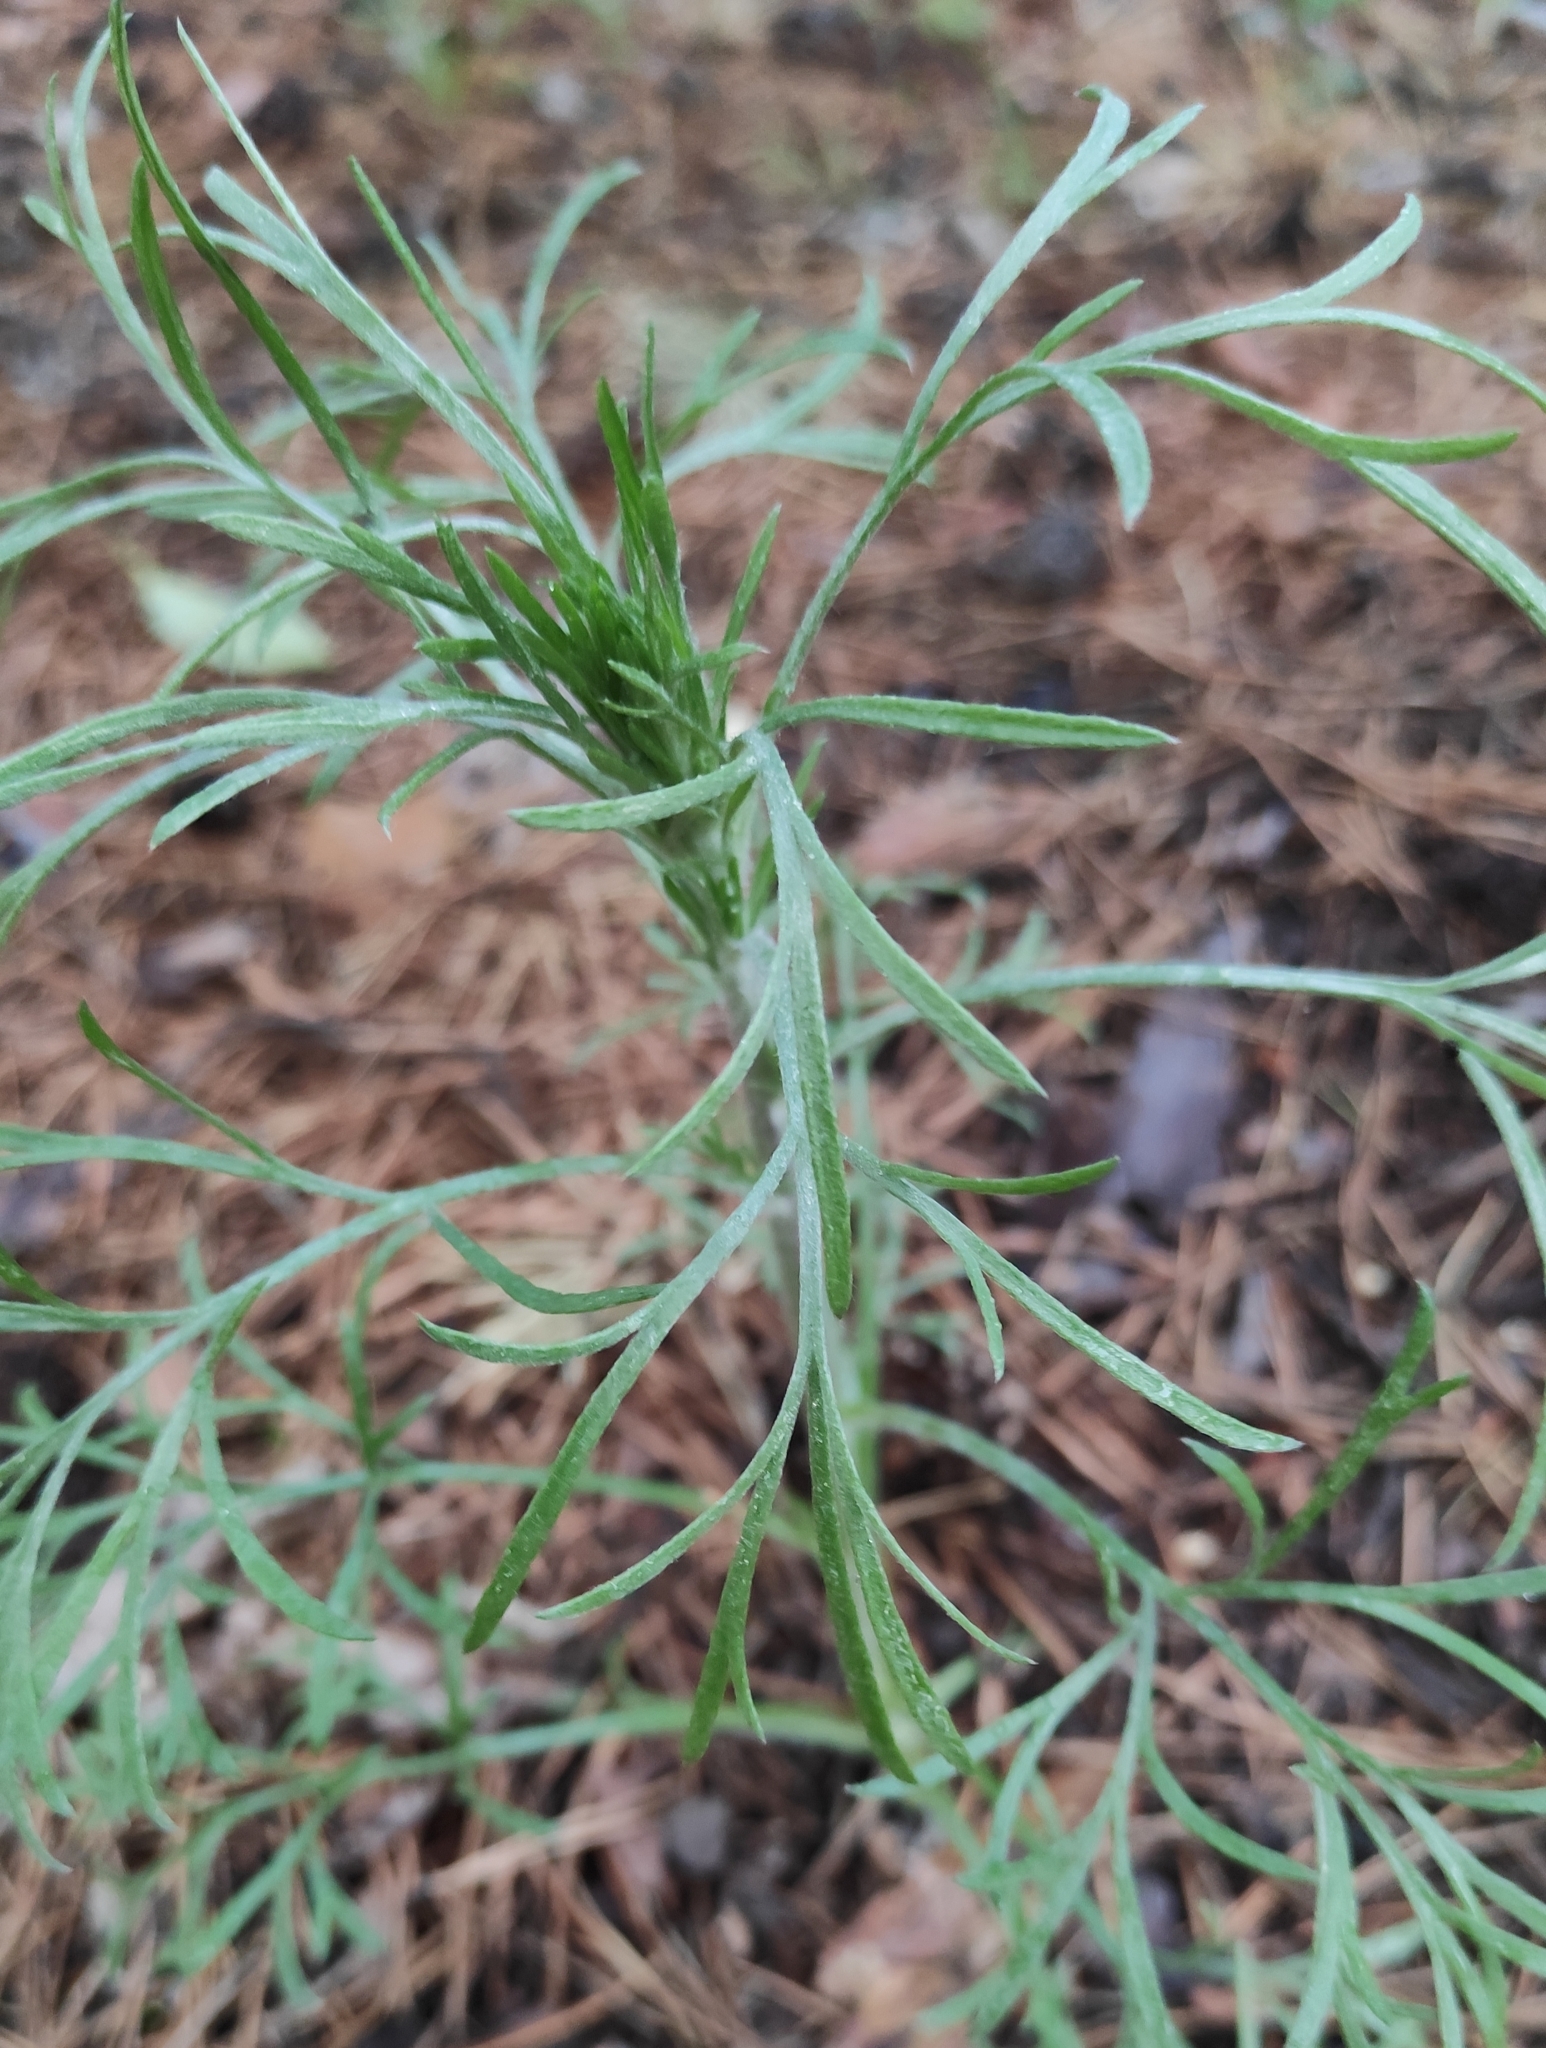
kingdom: Plantae
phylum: Tracheophyta
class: Magnoliopsida
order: Asterales
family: Asteraceae
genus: Artemisia
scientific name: Artemisia pubescens
